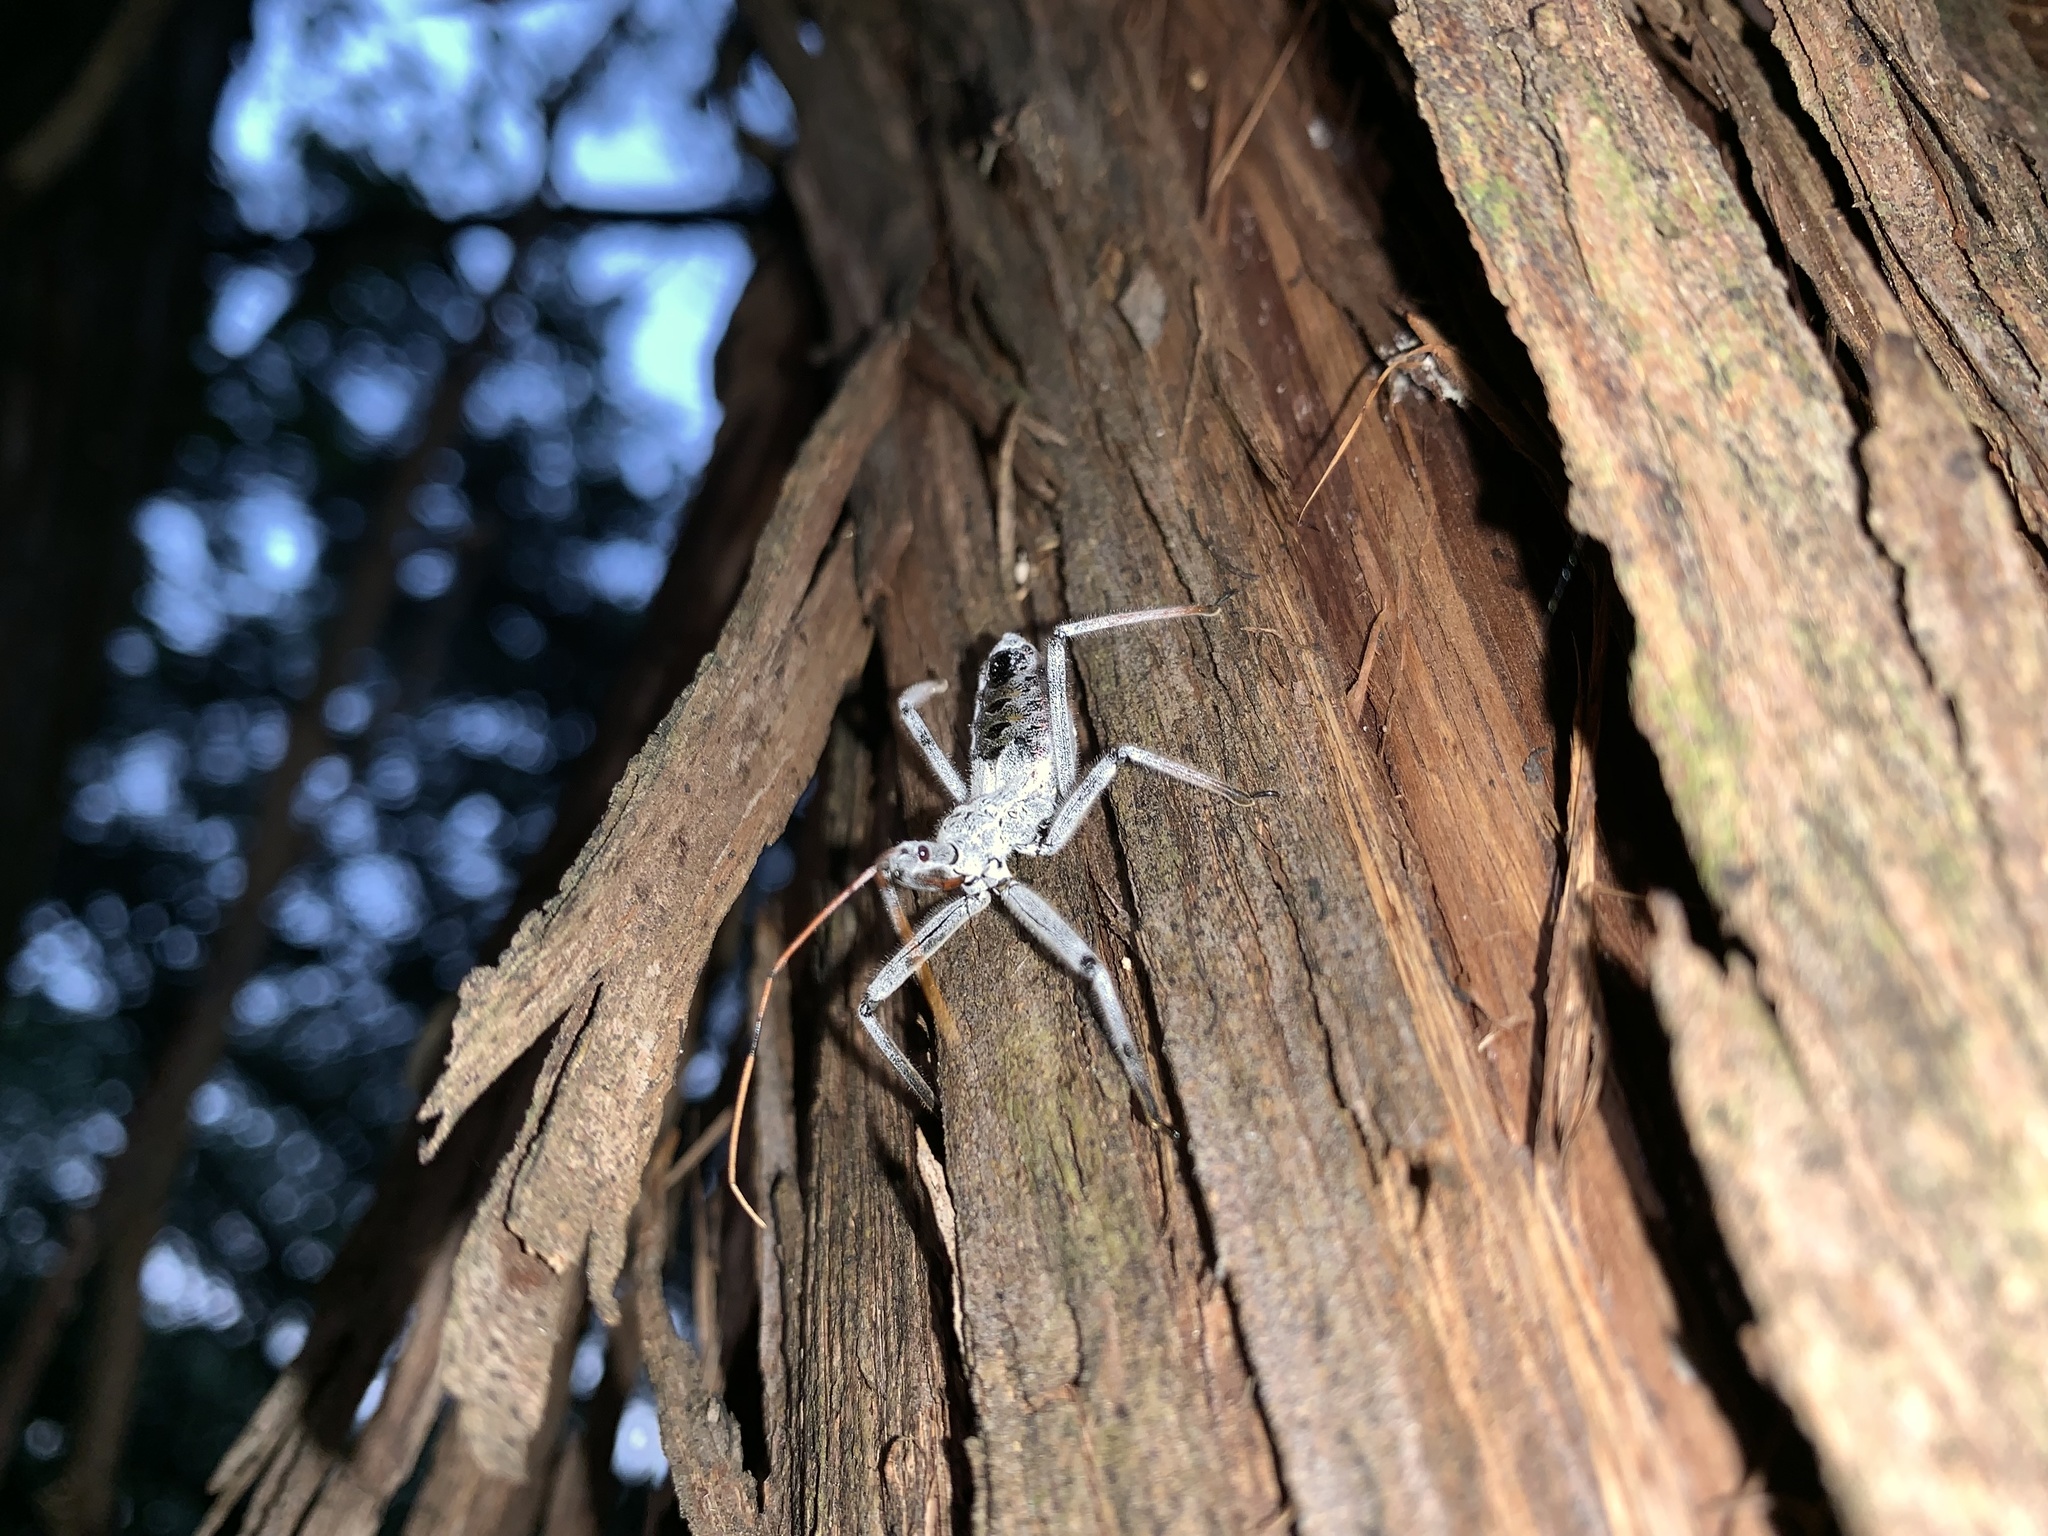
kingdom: Animalia
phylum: Arthropoda
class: Insecta
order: Hemiptera
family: Reduviidae
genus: Arilus
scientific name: Arilus cristatus
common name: North american wheel bug
